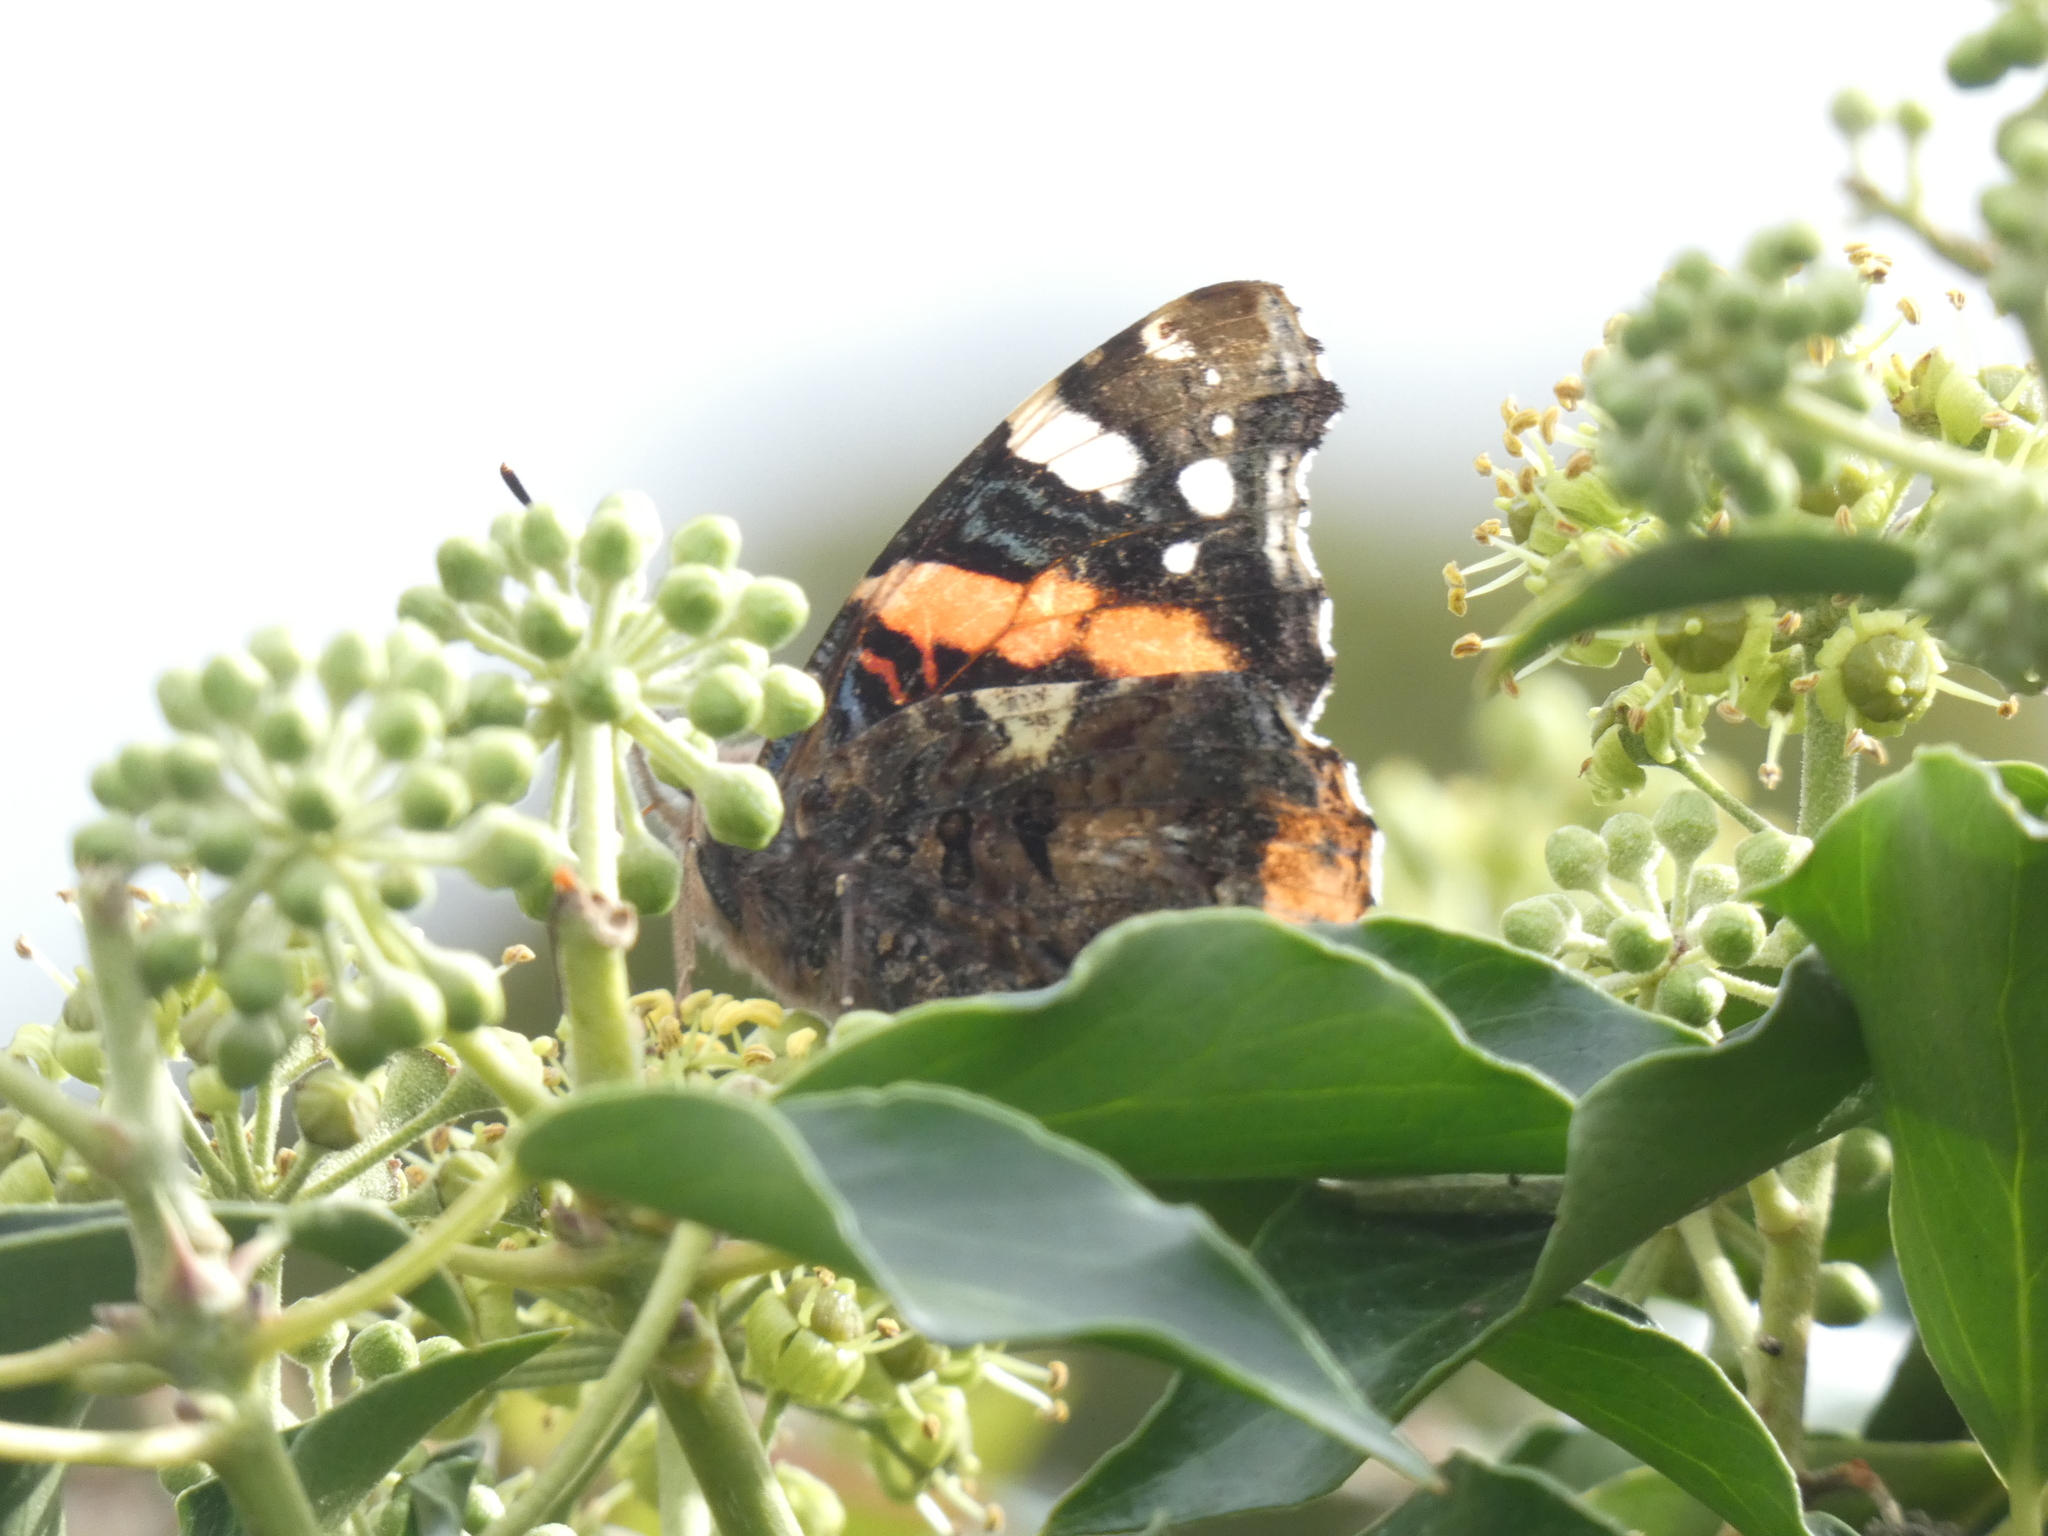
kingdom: Animalia
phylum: Arthropoda
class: Insecta
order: Lepidoptera
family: Nymphalidae
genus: Vanessa
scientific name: Vanessa atalanta
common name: Red admiral
